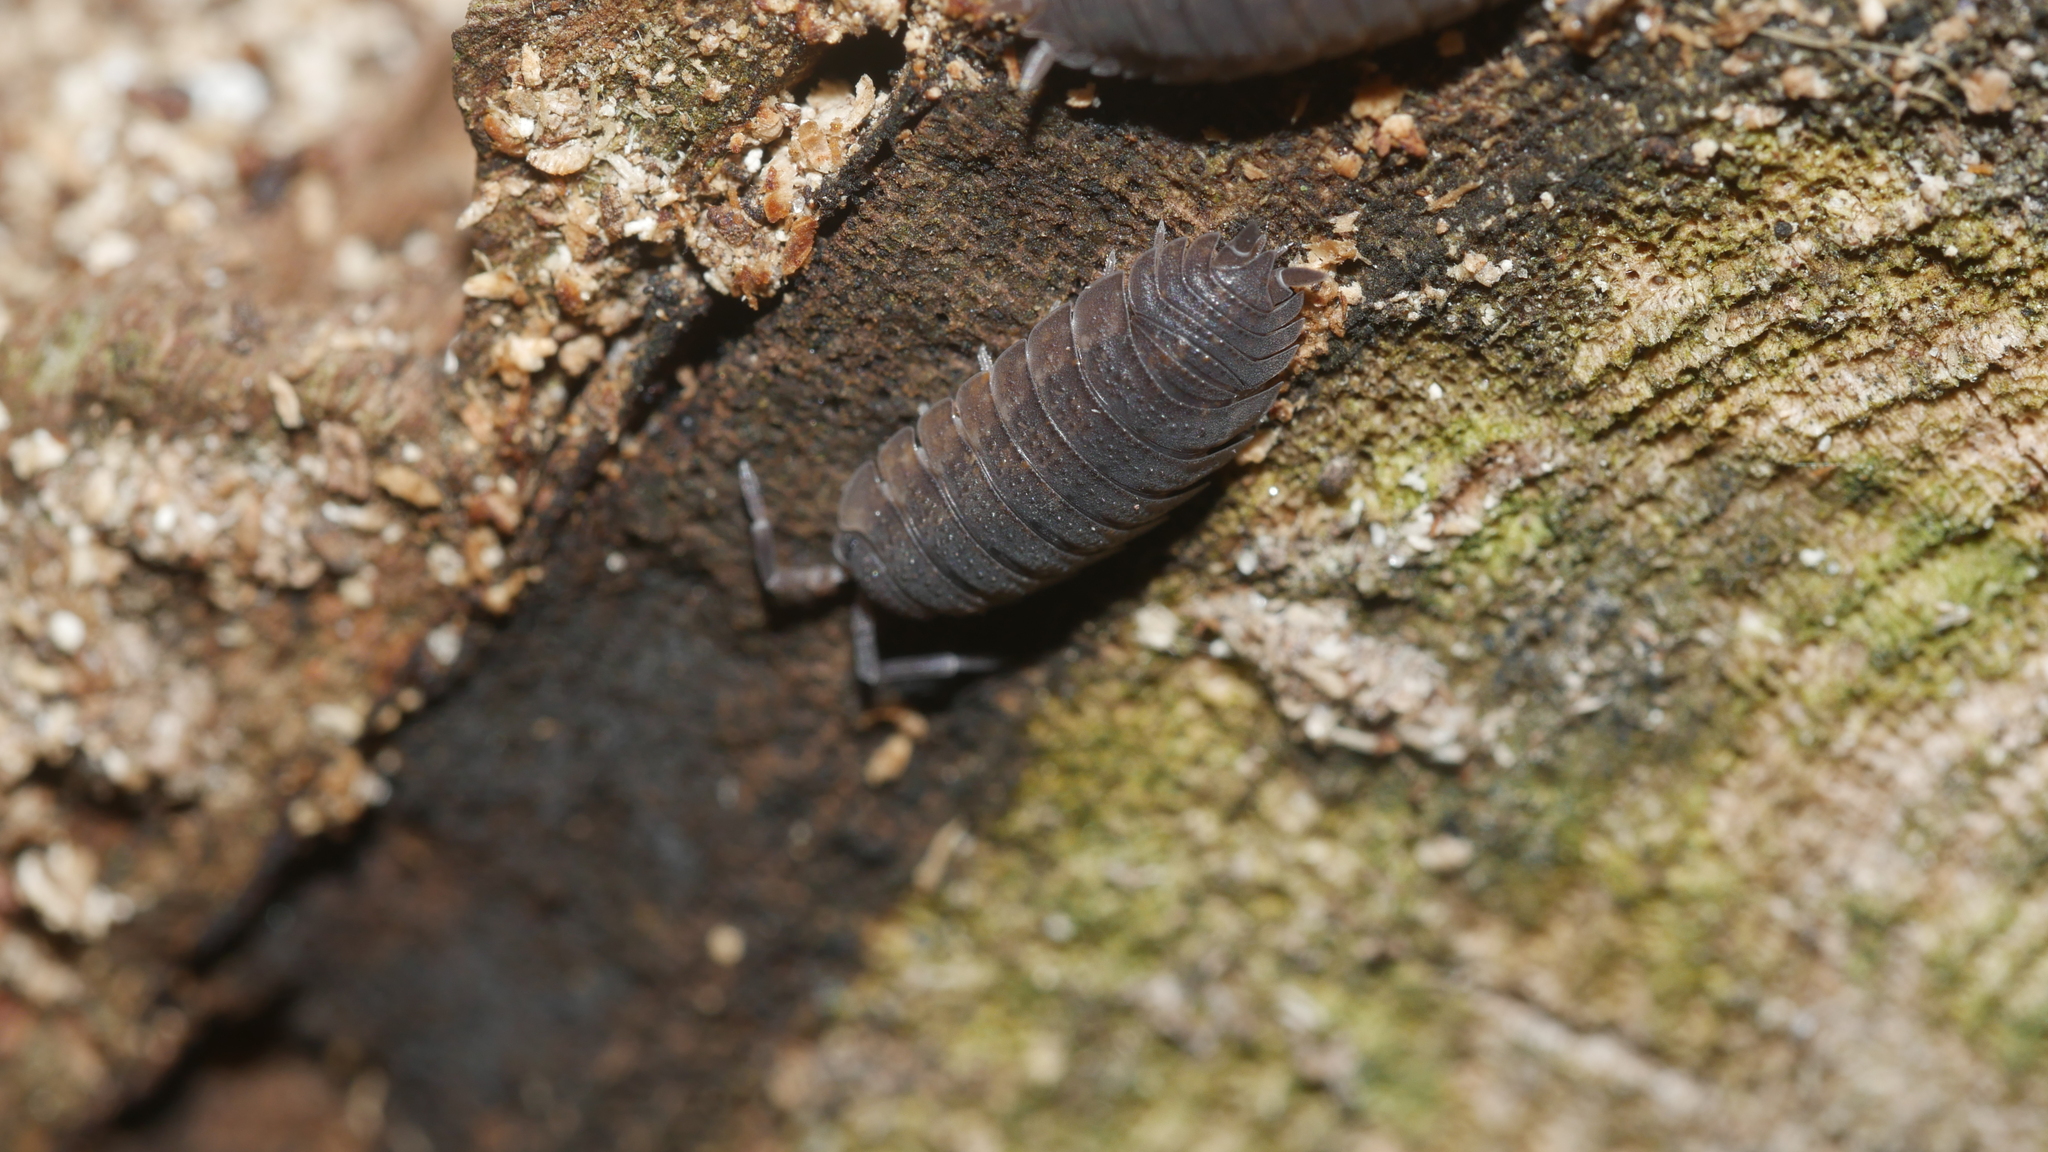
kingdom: Animalia
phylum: Arthropoda
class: Malacostraca
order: Isopoda
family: Porcellionidae
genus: Porcellio
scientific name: Porcellio scaber
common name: Common rough woodlouse
